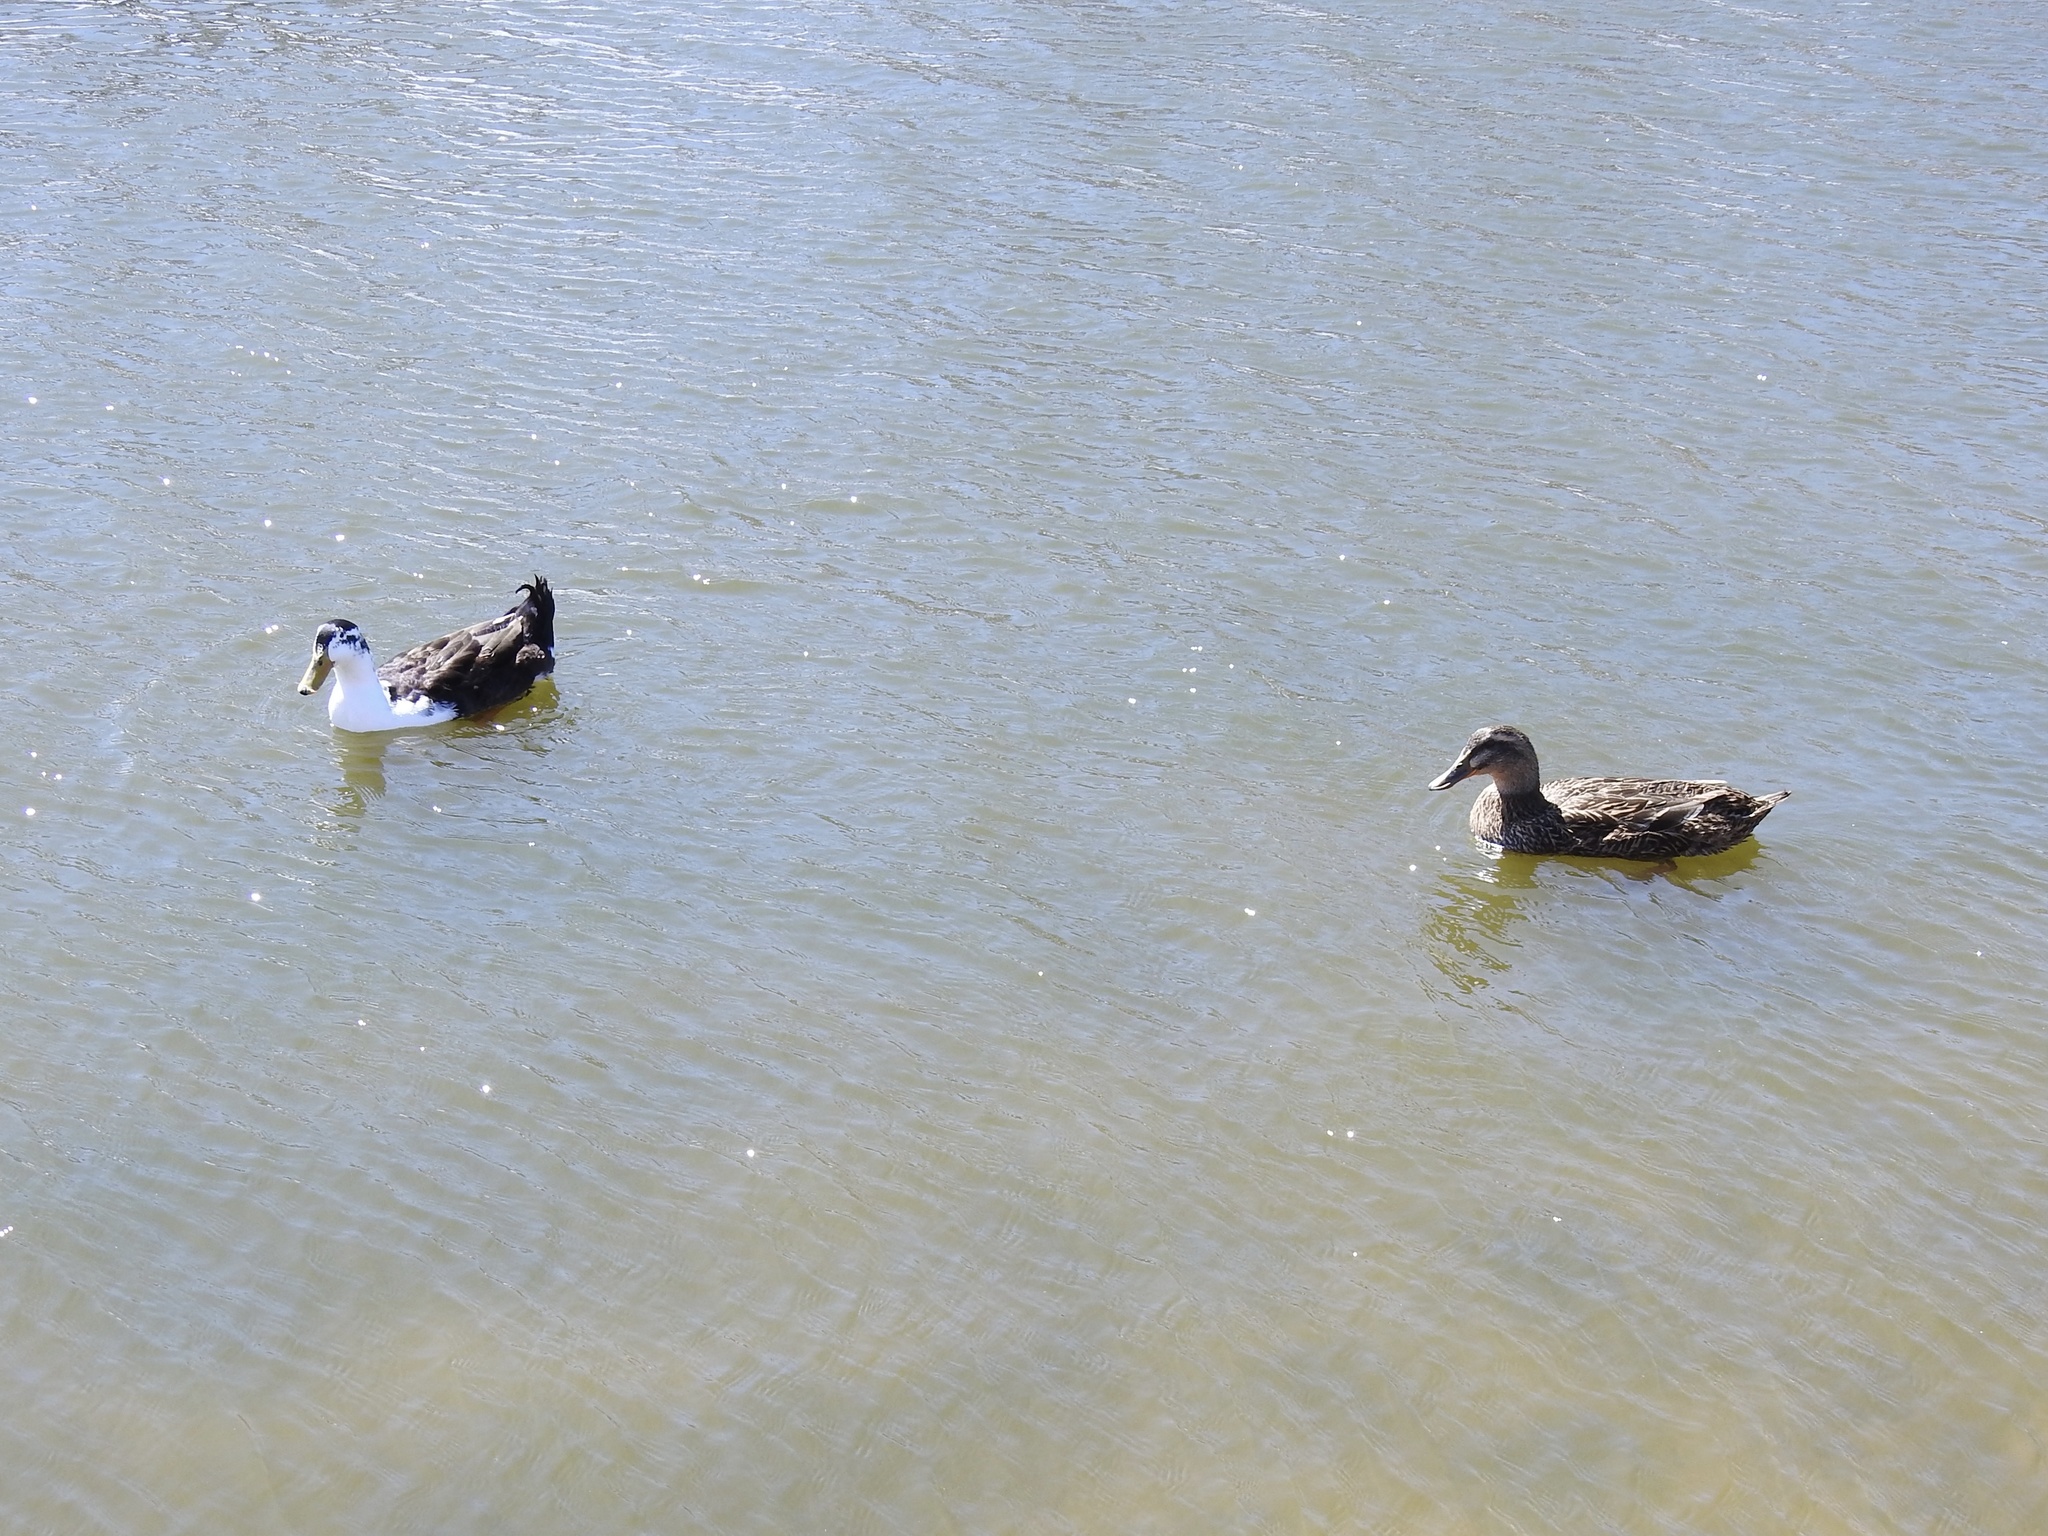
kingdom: Animalia
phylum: Chordata
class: Aves
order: Anseriformes
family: Anatidae
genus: Anas
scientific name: Anas platyrhynchos
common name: Mallard
